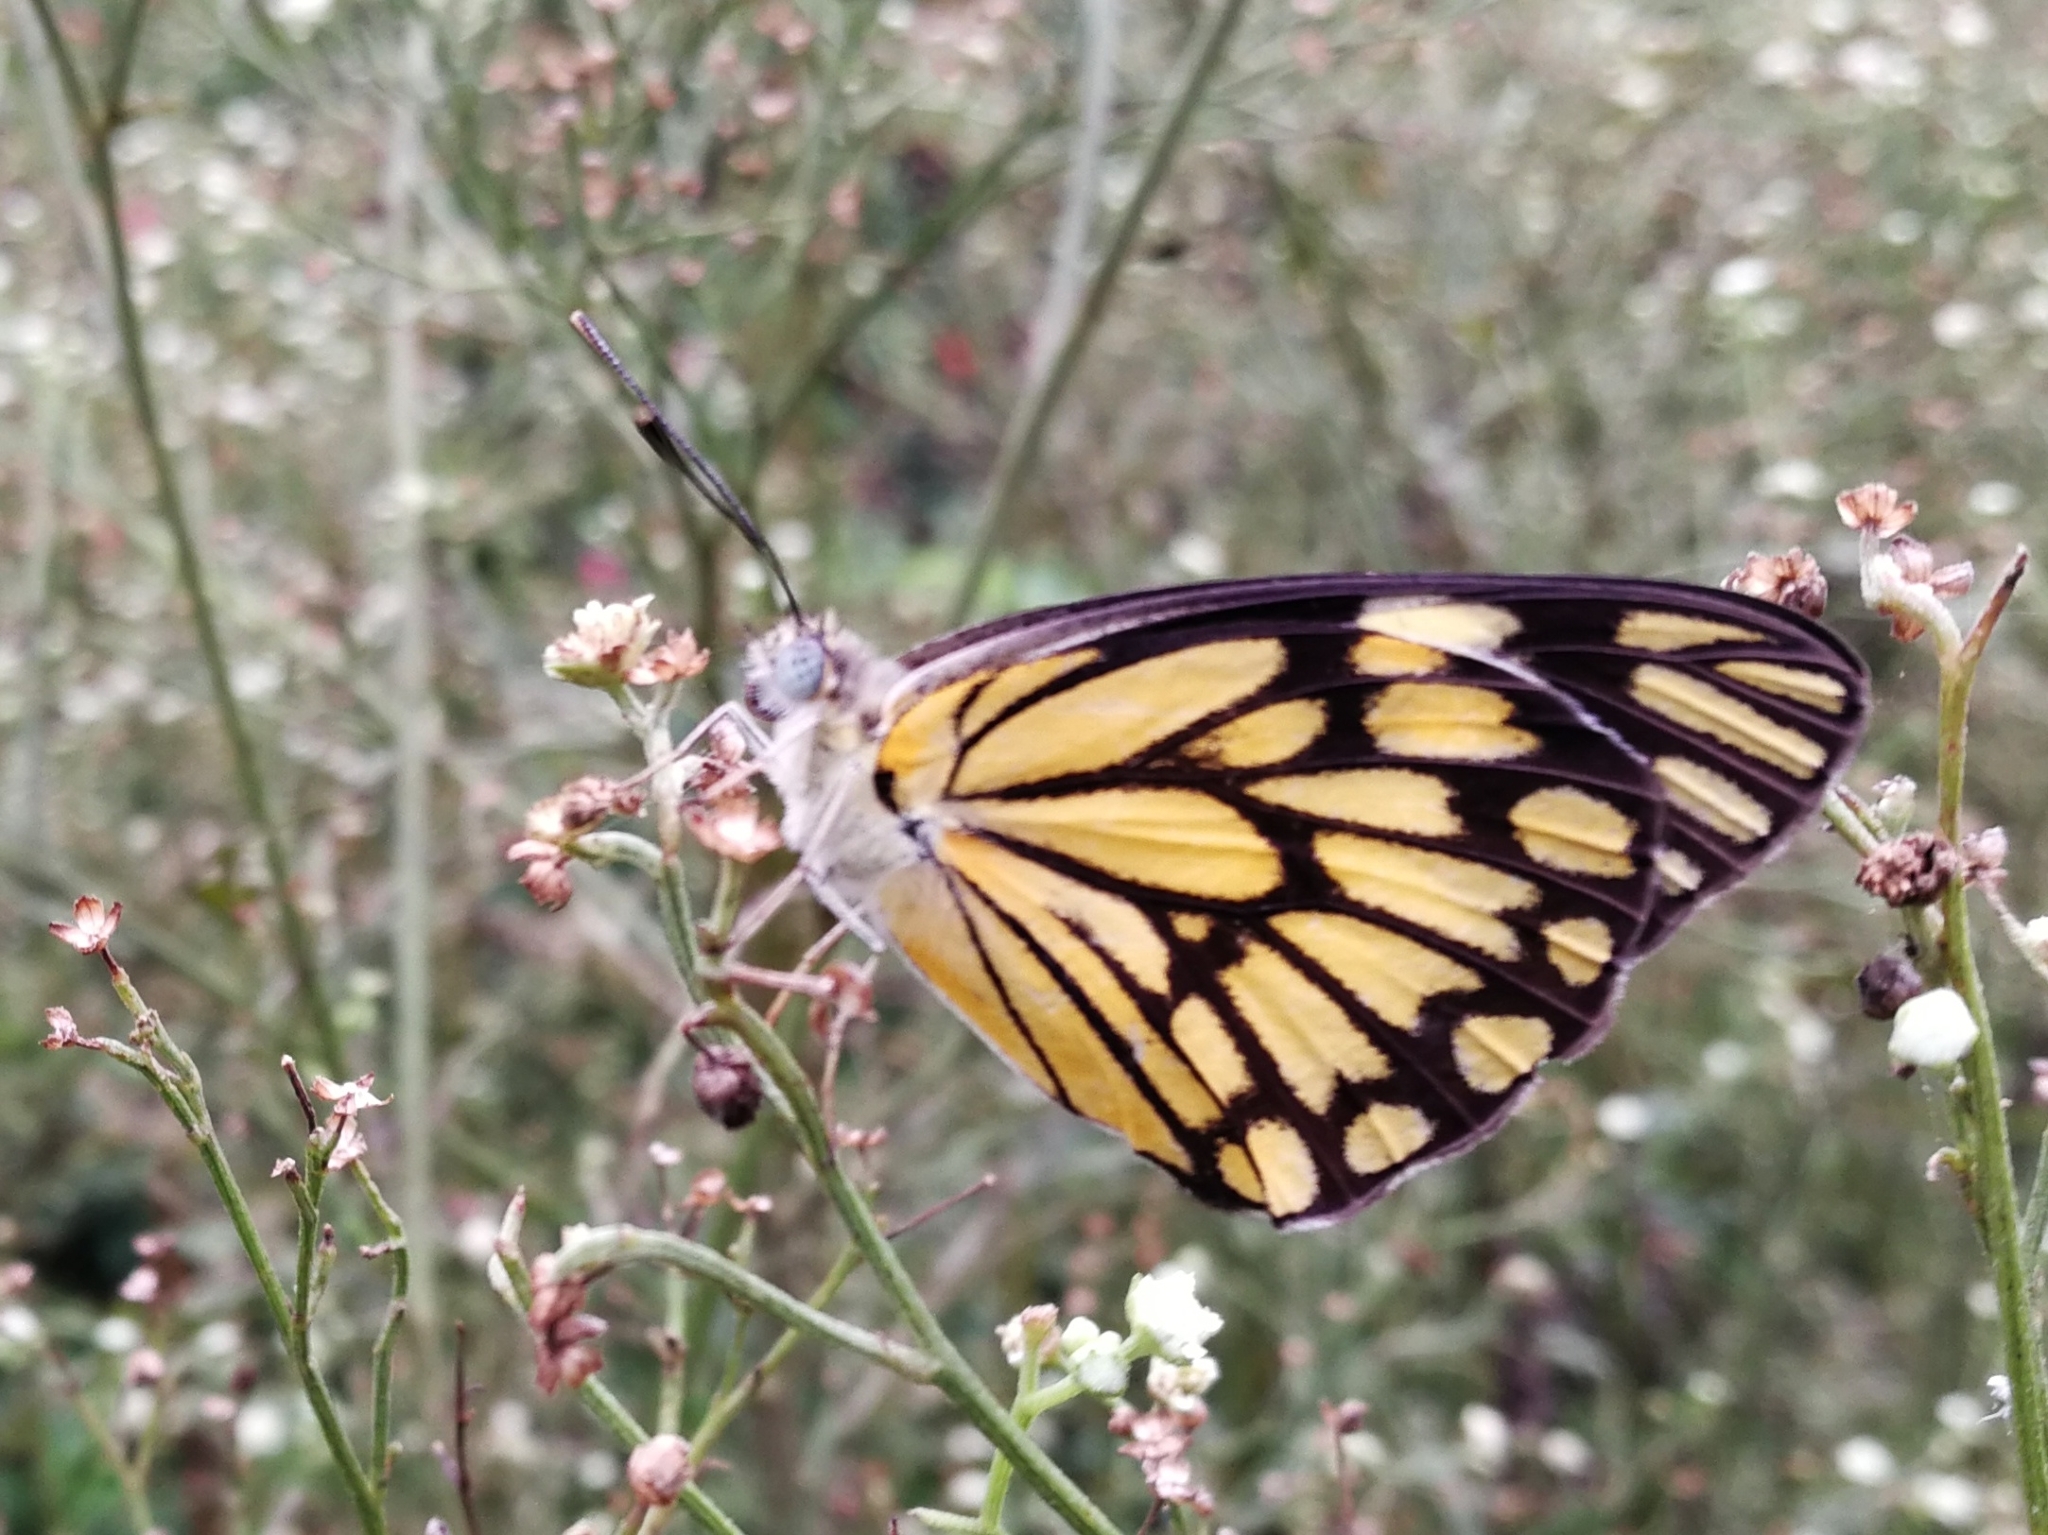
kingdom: Animalia
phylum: Arthropoda
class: Insecta
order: Lepidoptera
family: Pieridae
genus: Belenois
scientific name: Belenois aurota
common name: Brown-veined white
